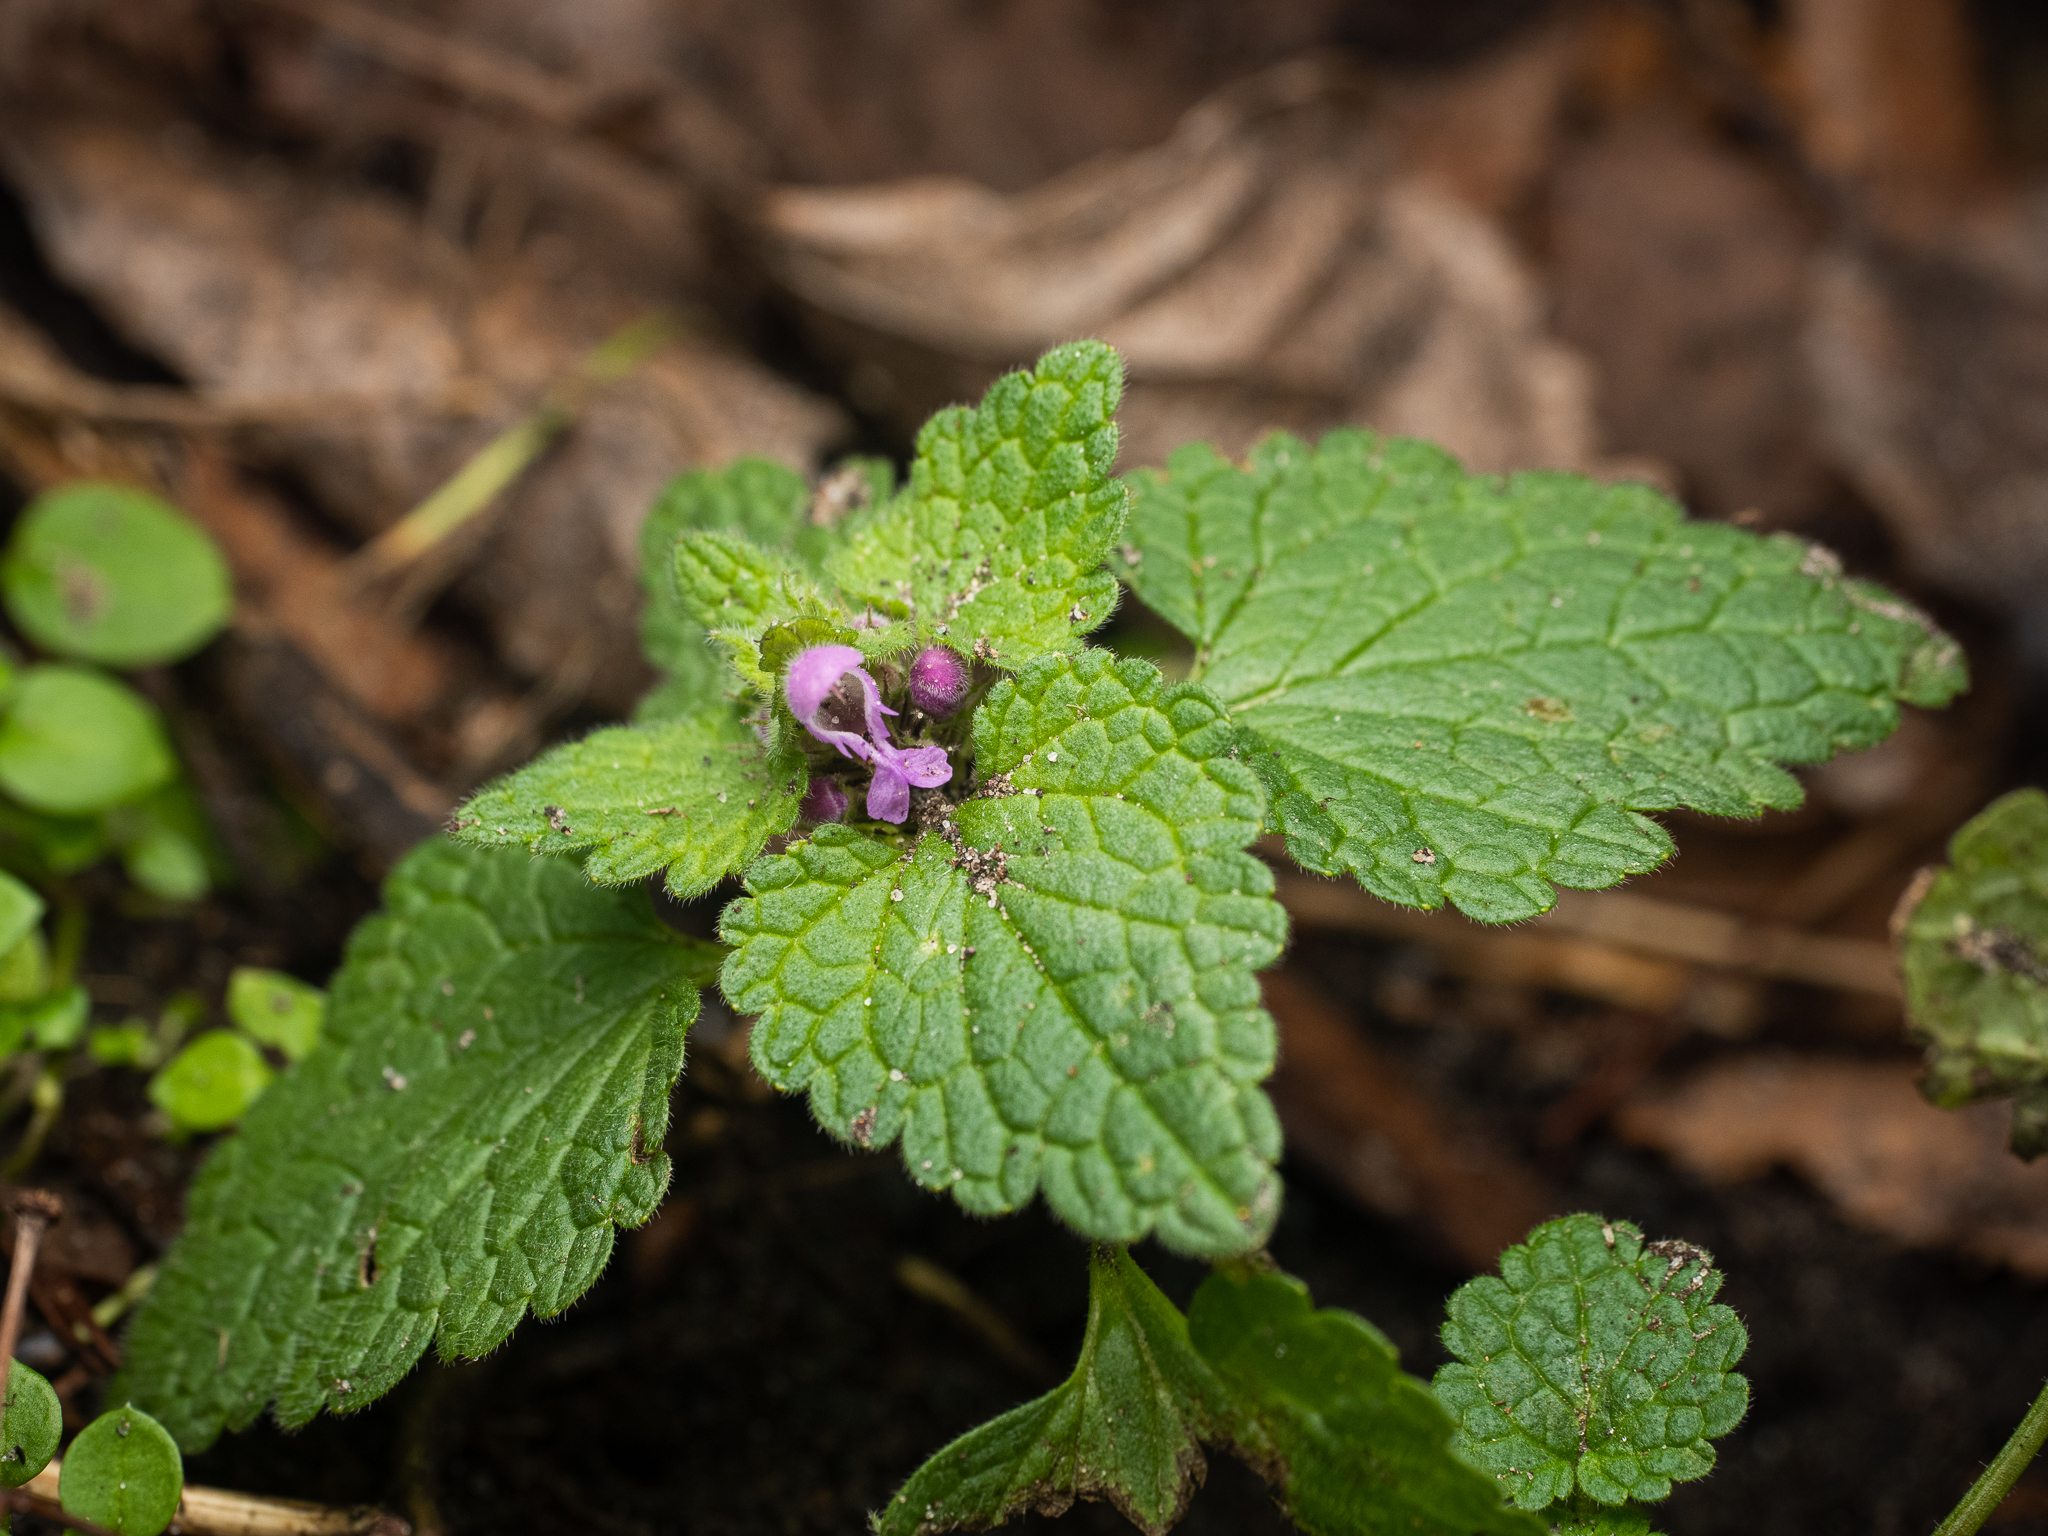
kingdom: Plantae
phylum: Tracheophyta
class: Magnoliopsida
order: Lamiales
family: Lamiaceae
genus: Lamium
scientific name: Lamium purpureum
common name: Red dead-nettle
